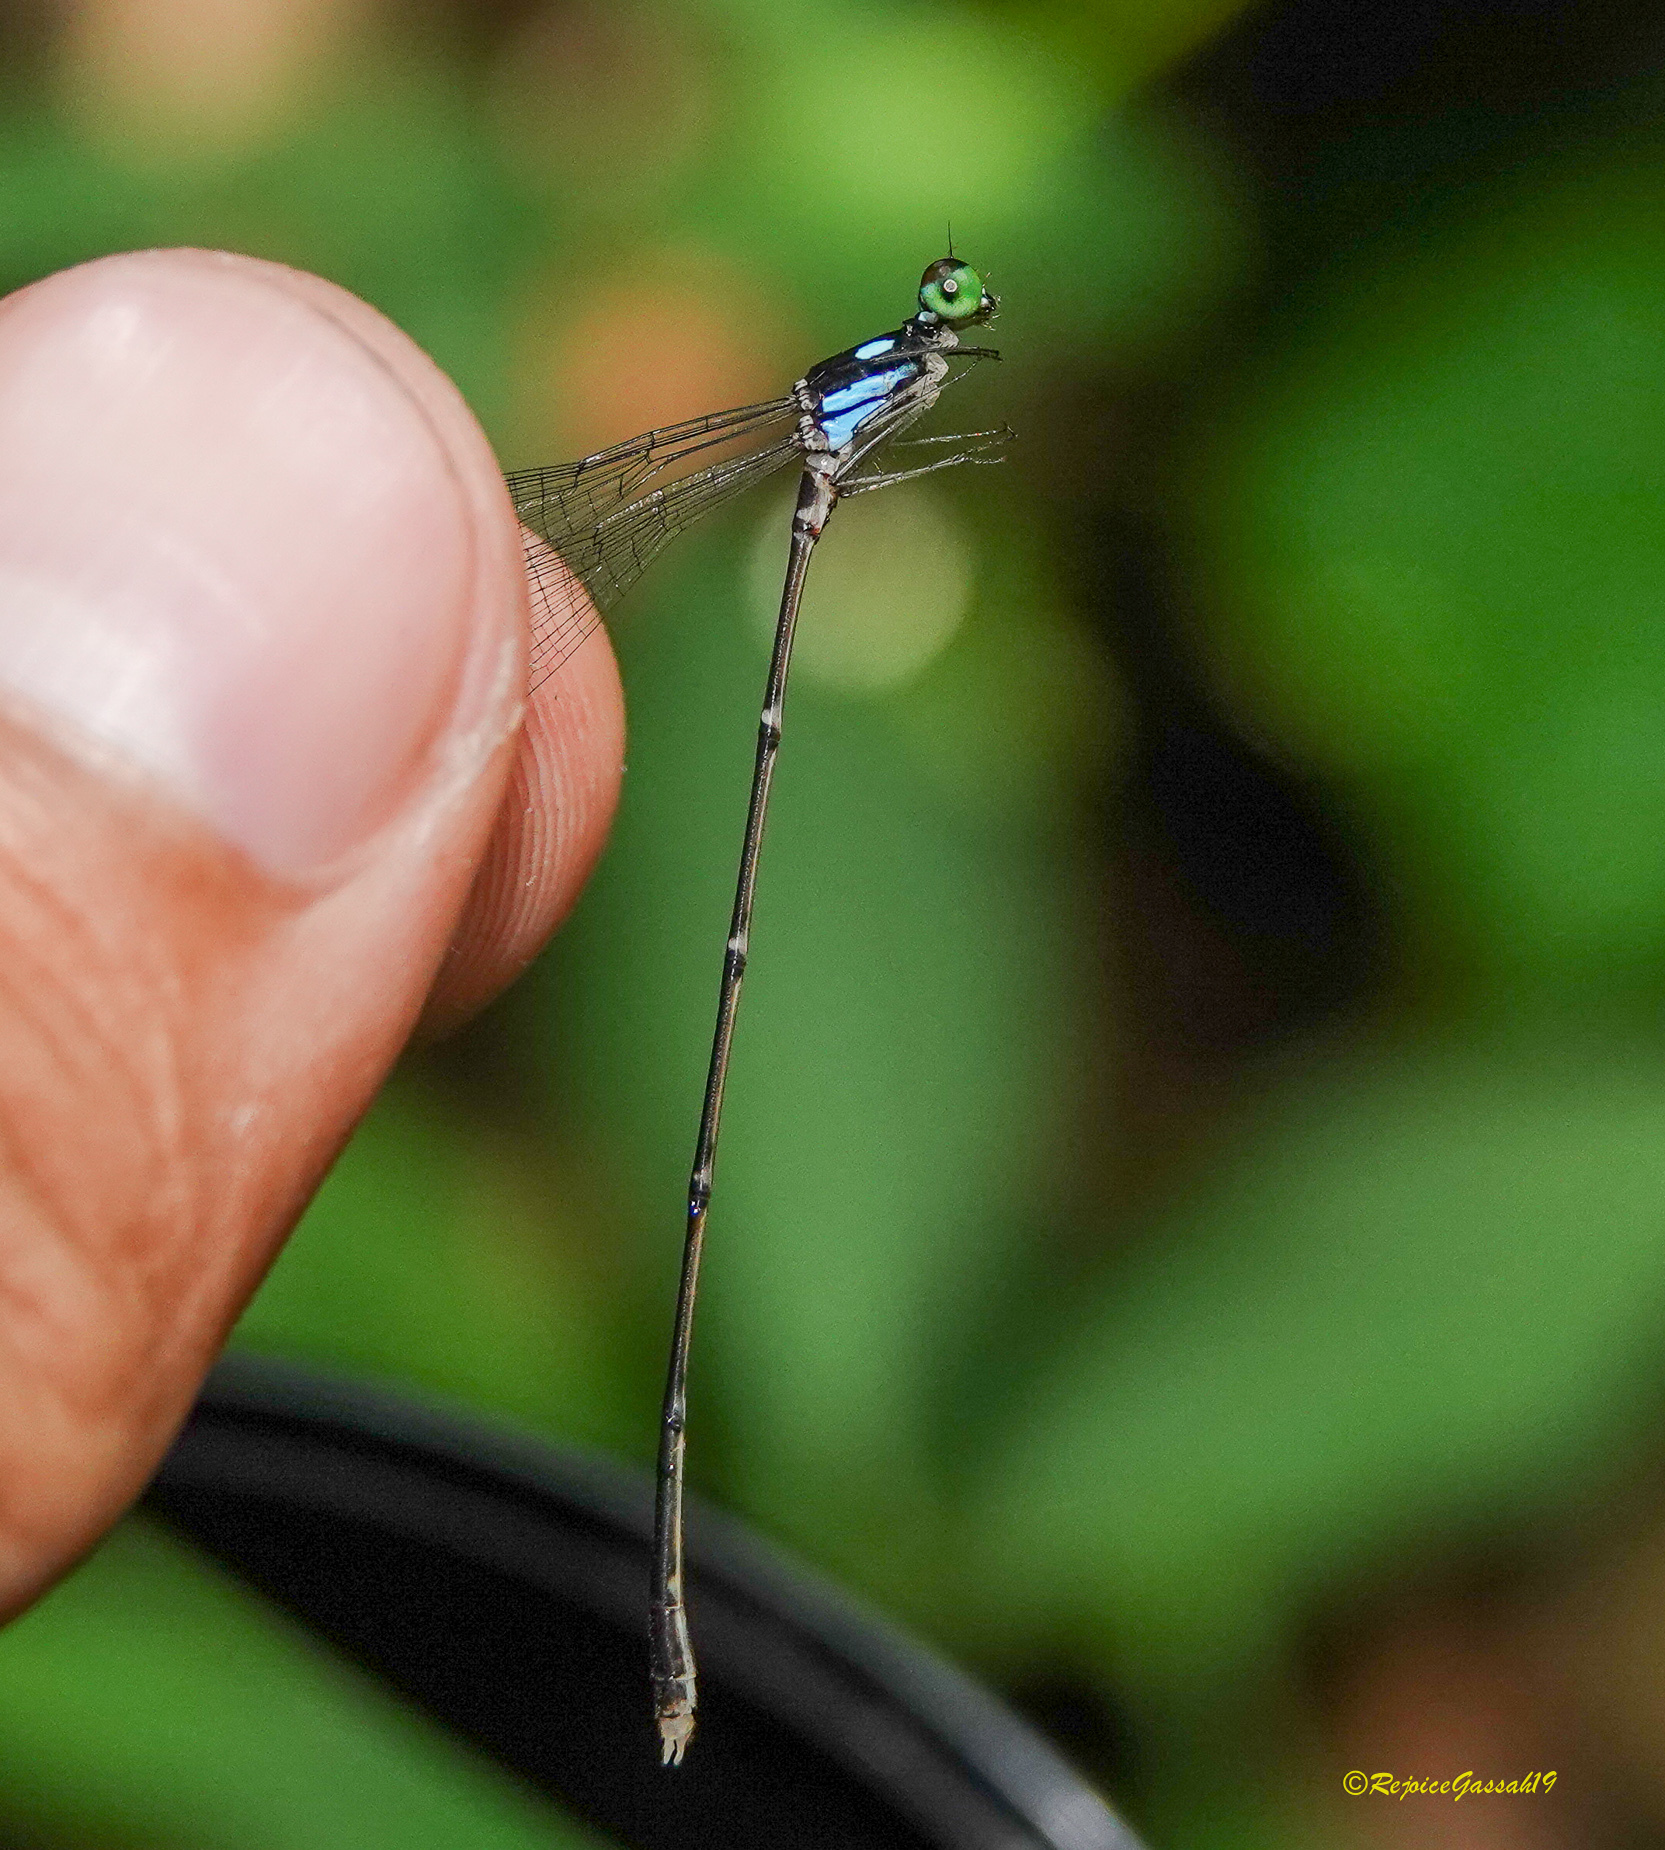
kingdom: Animalia
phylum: Arthropoda
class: Insecta
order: Odonata
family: Platycnemididae
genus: Coeliccia
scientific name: Coeliccia bimaculata
